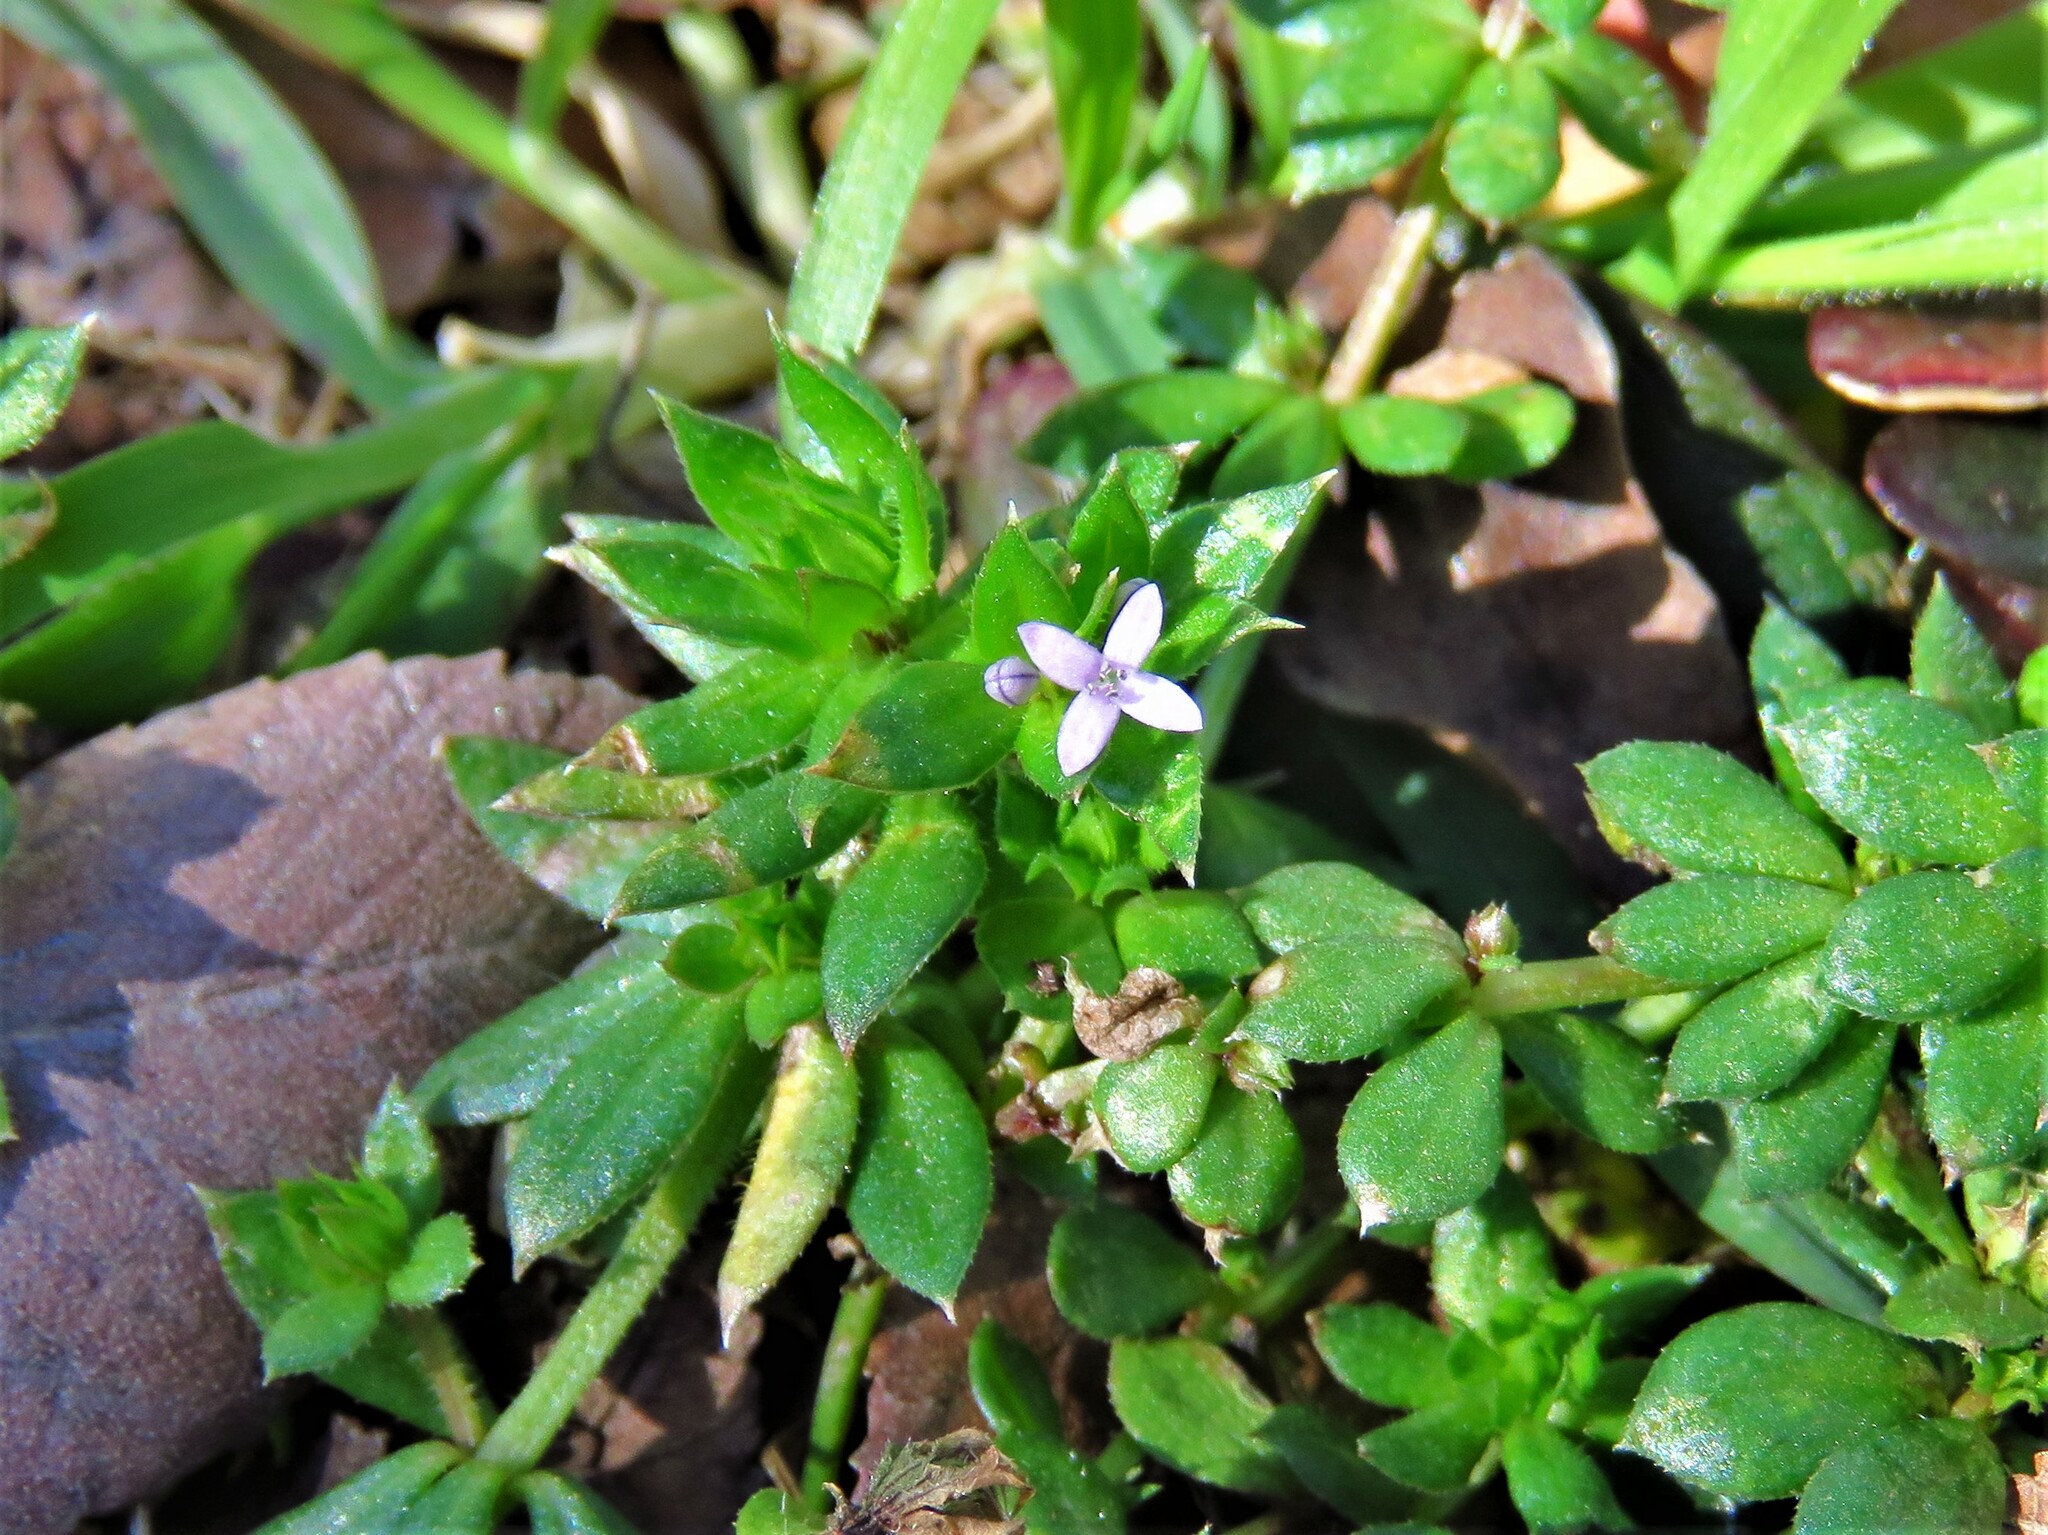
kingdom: Plantae
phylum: Tracheophyta
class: Magnoliopsida
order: Gentianales
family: Rubiaceae
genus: Sherardia
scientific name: Sherardia arvensis
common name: Field madder
